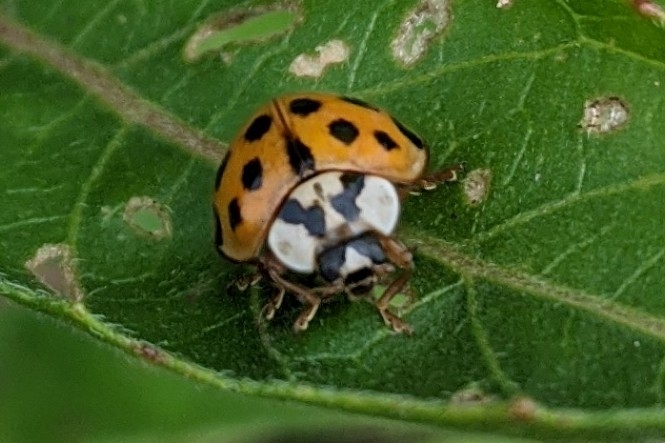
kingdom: Animalia
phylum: Arthropoda
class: Insecta
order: Coleoptera
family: Coccinellidae
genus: Harmonia
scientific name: Harmonia axyridis
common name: Harlequin ladybird
